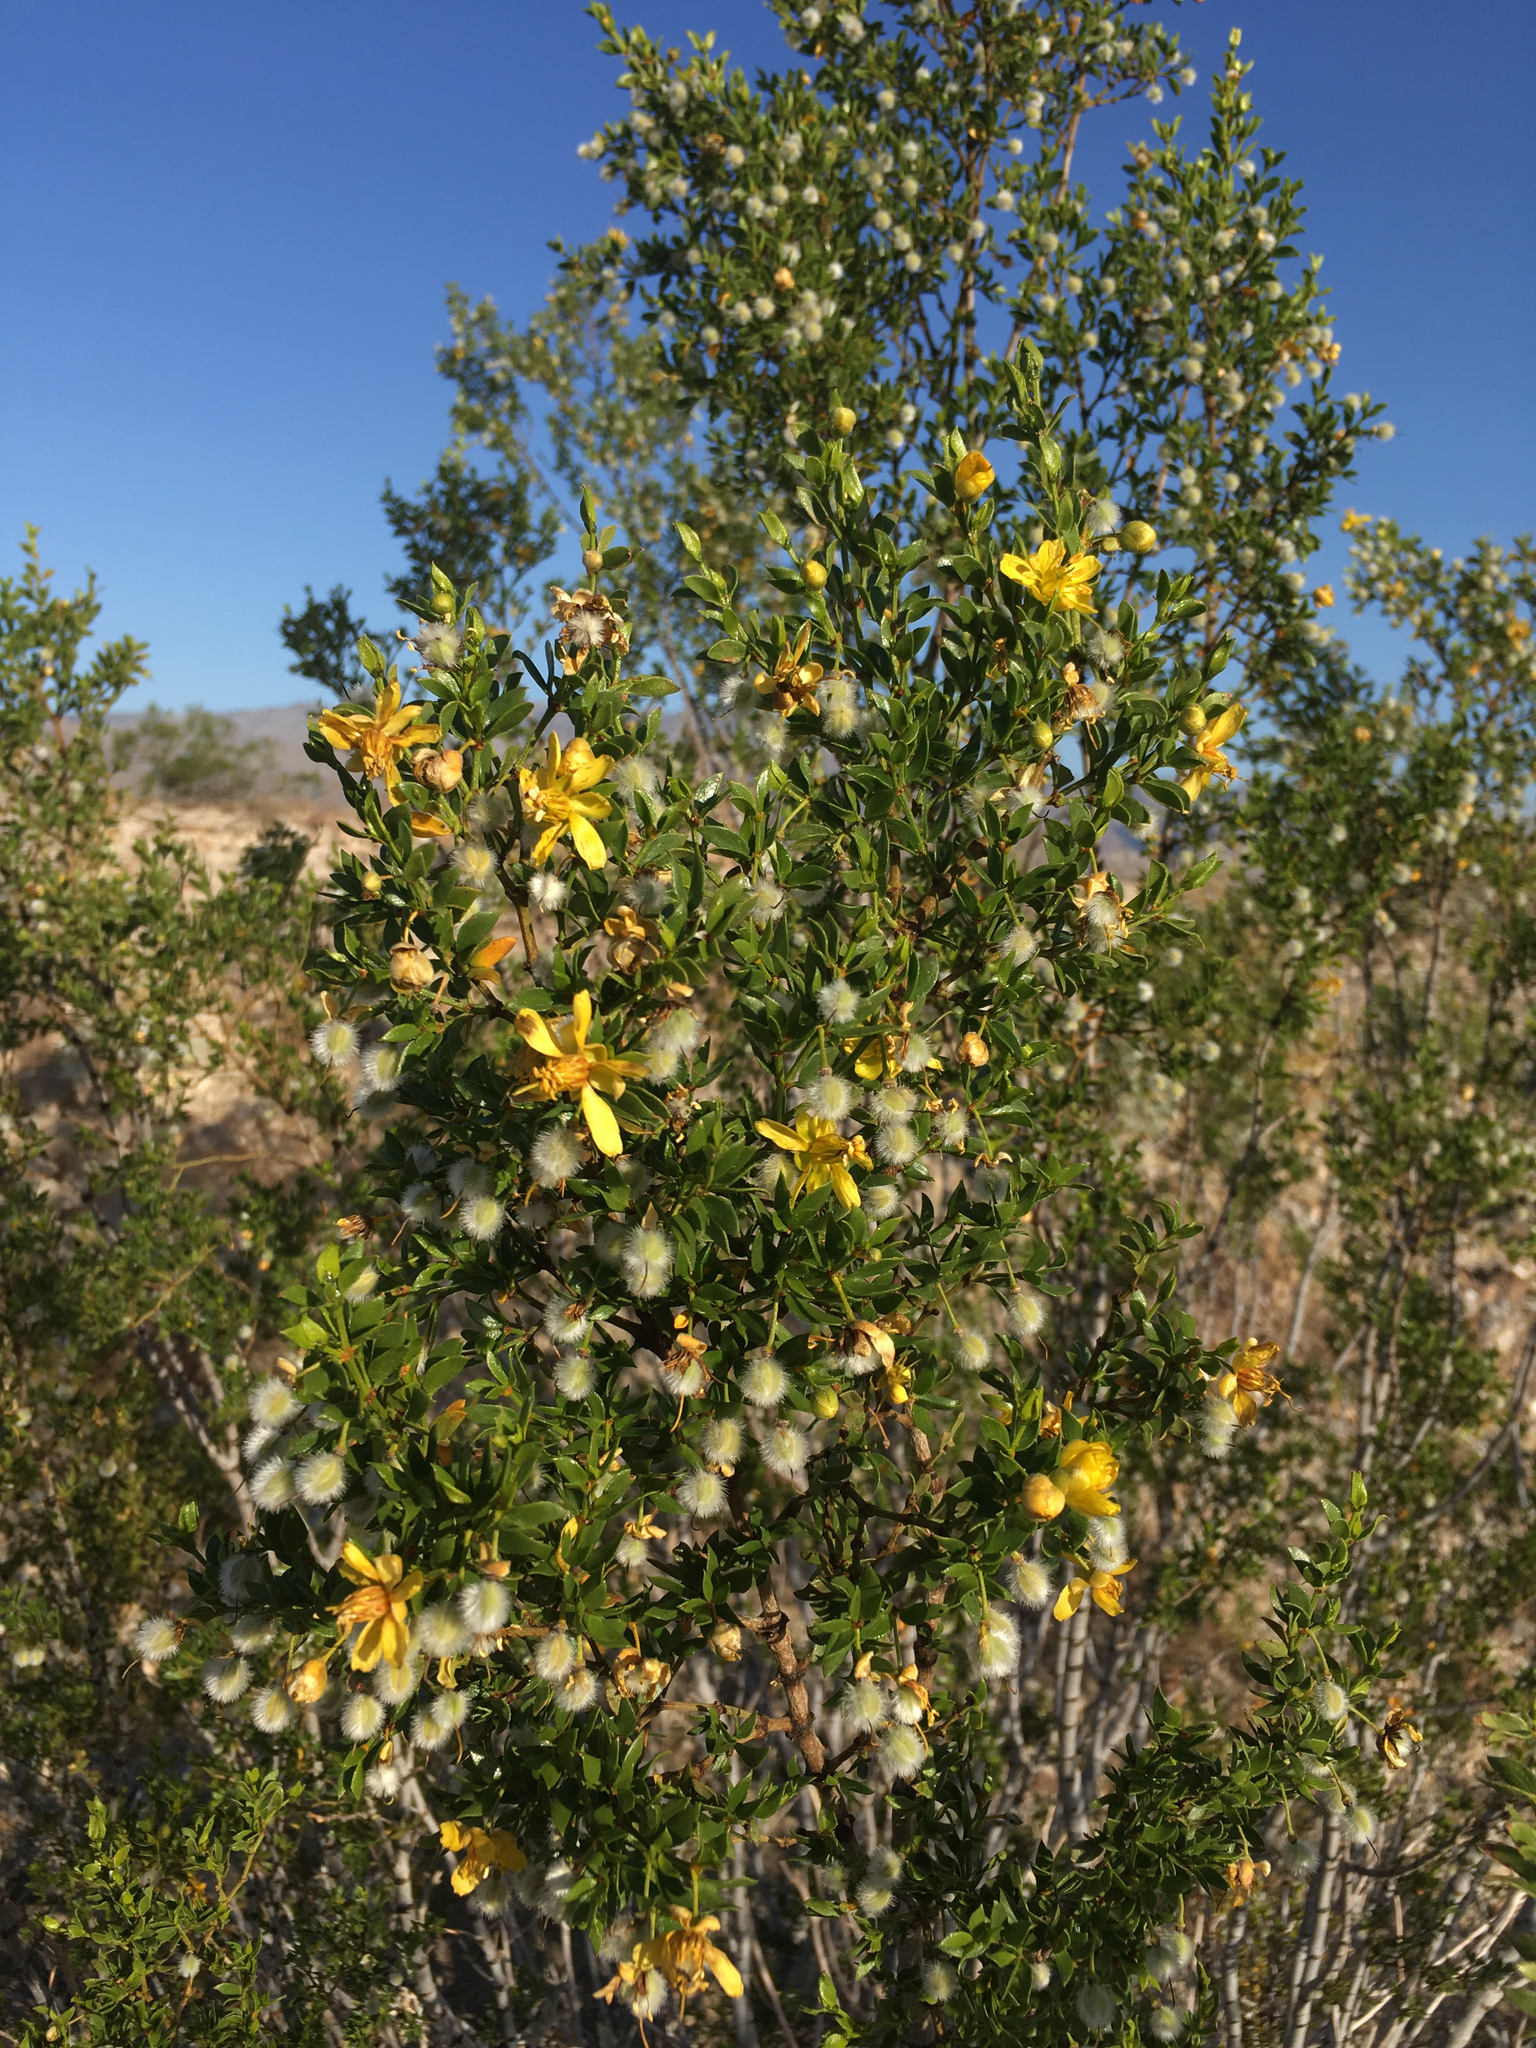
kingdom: Plantae
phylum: Tracheophyta
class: Magnoliopsida
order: Zygophyllales
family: Zygophyllaceae
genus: Larrea
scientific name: Larrea tridentata
